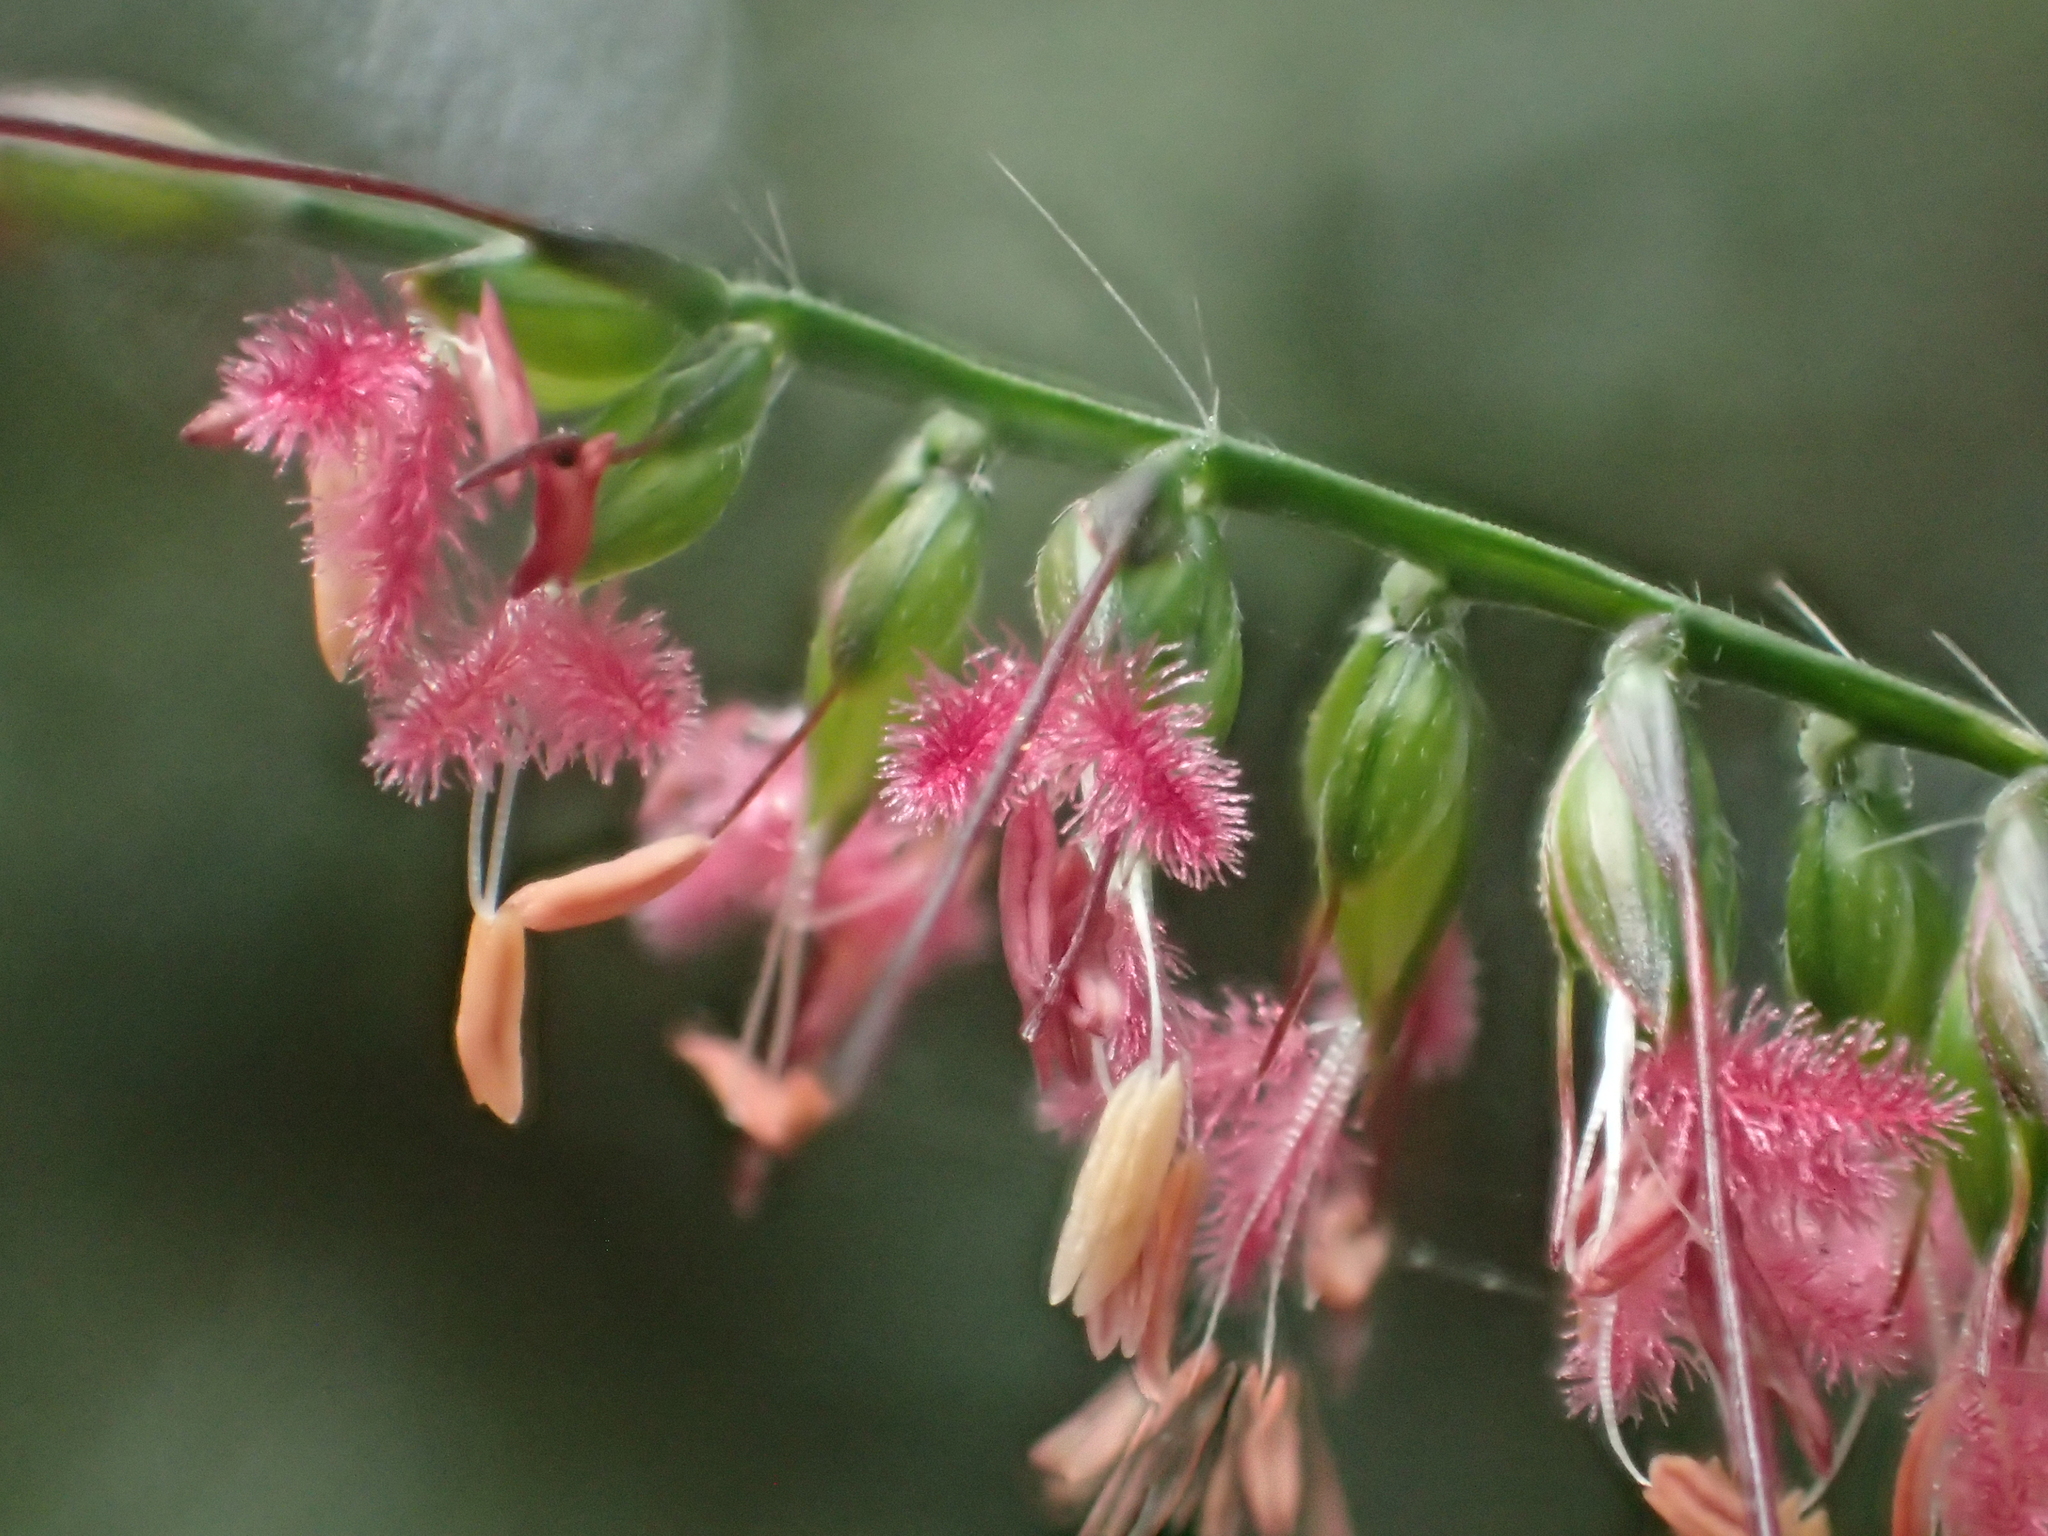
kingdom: Plantae
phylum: Tracheophyta
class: Liliopsida
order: Poales
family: Poaceae
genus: Oplismenus
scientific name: Oplismenus compositus
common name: Running mountain grass
